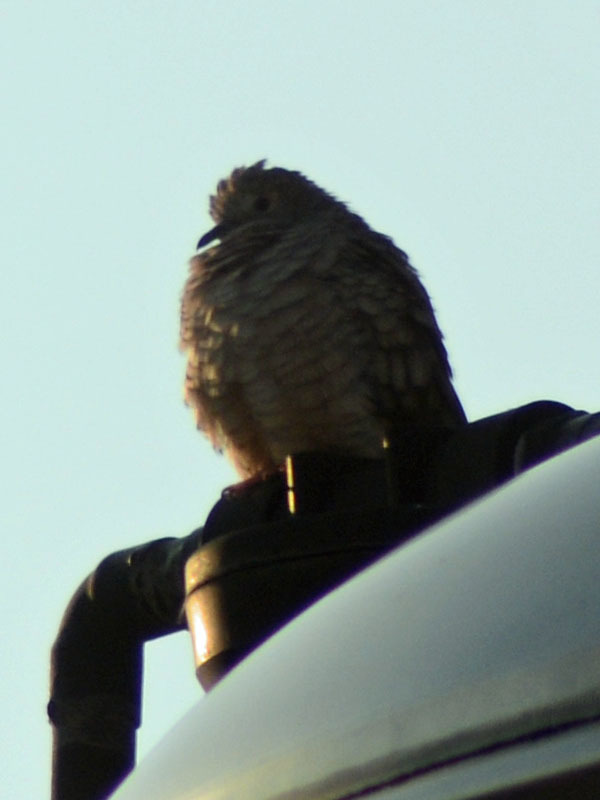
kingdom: Animalia
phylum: Chordata
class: Aves
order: Columbiformes
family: Columbidae
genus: Columbina
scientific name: Columbina inca
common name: Inca dove
